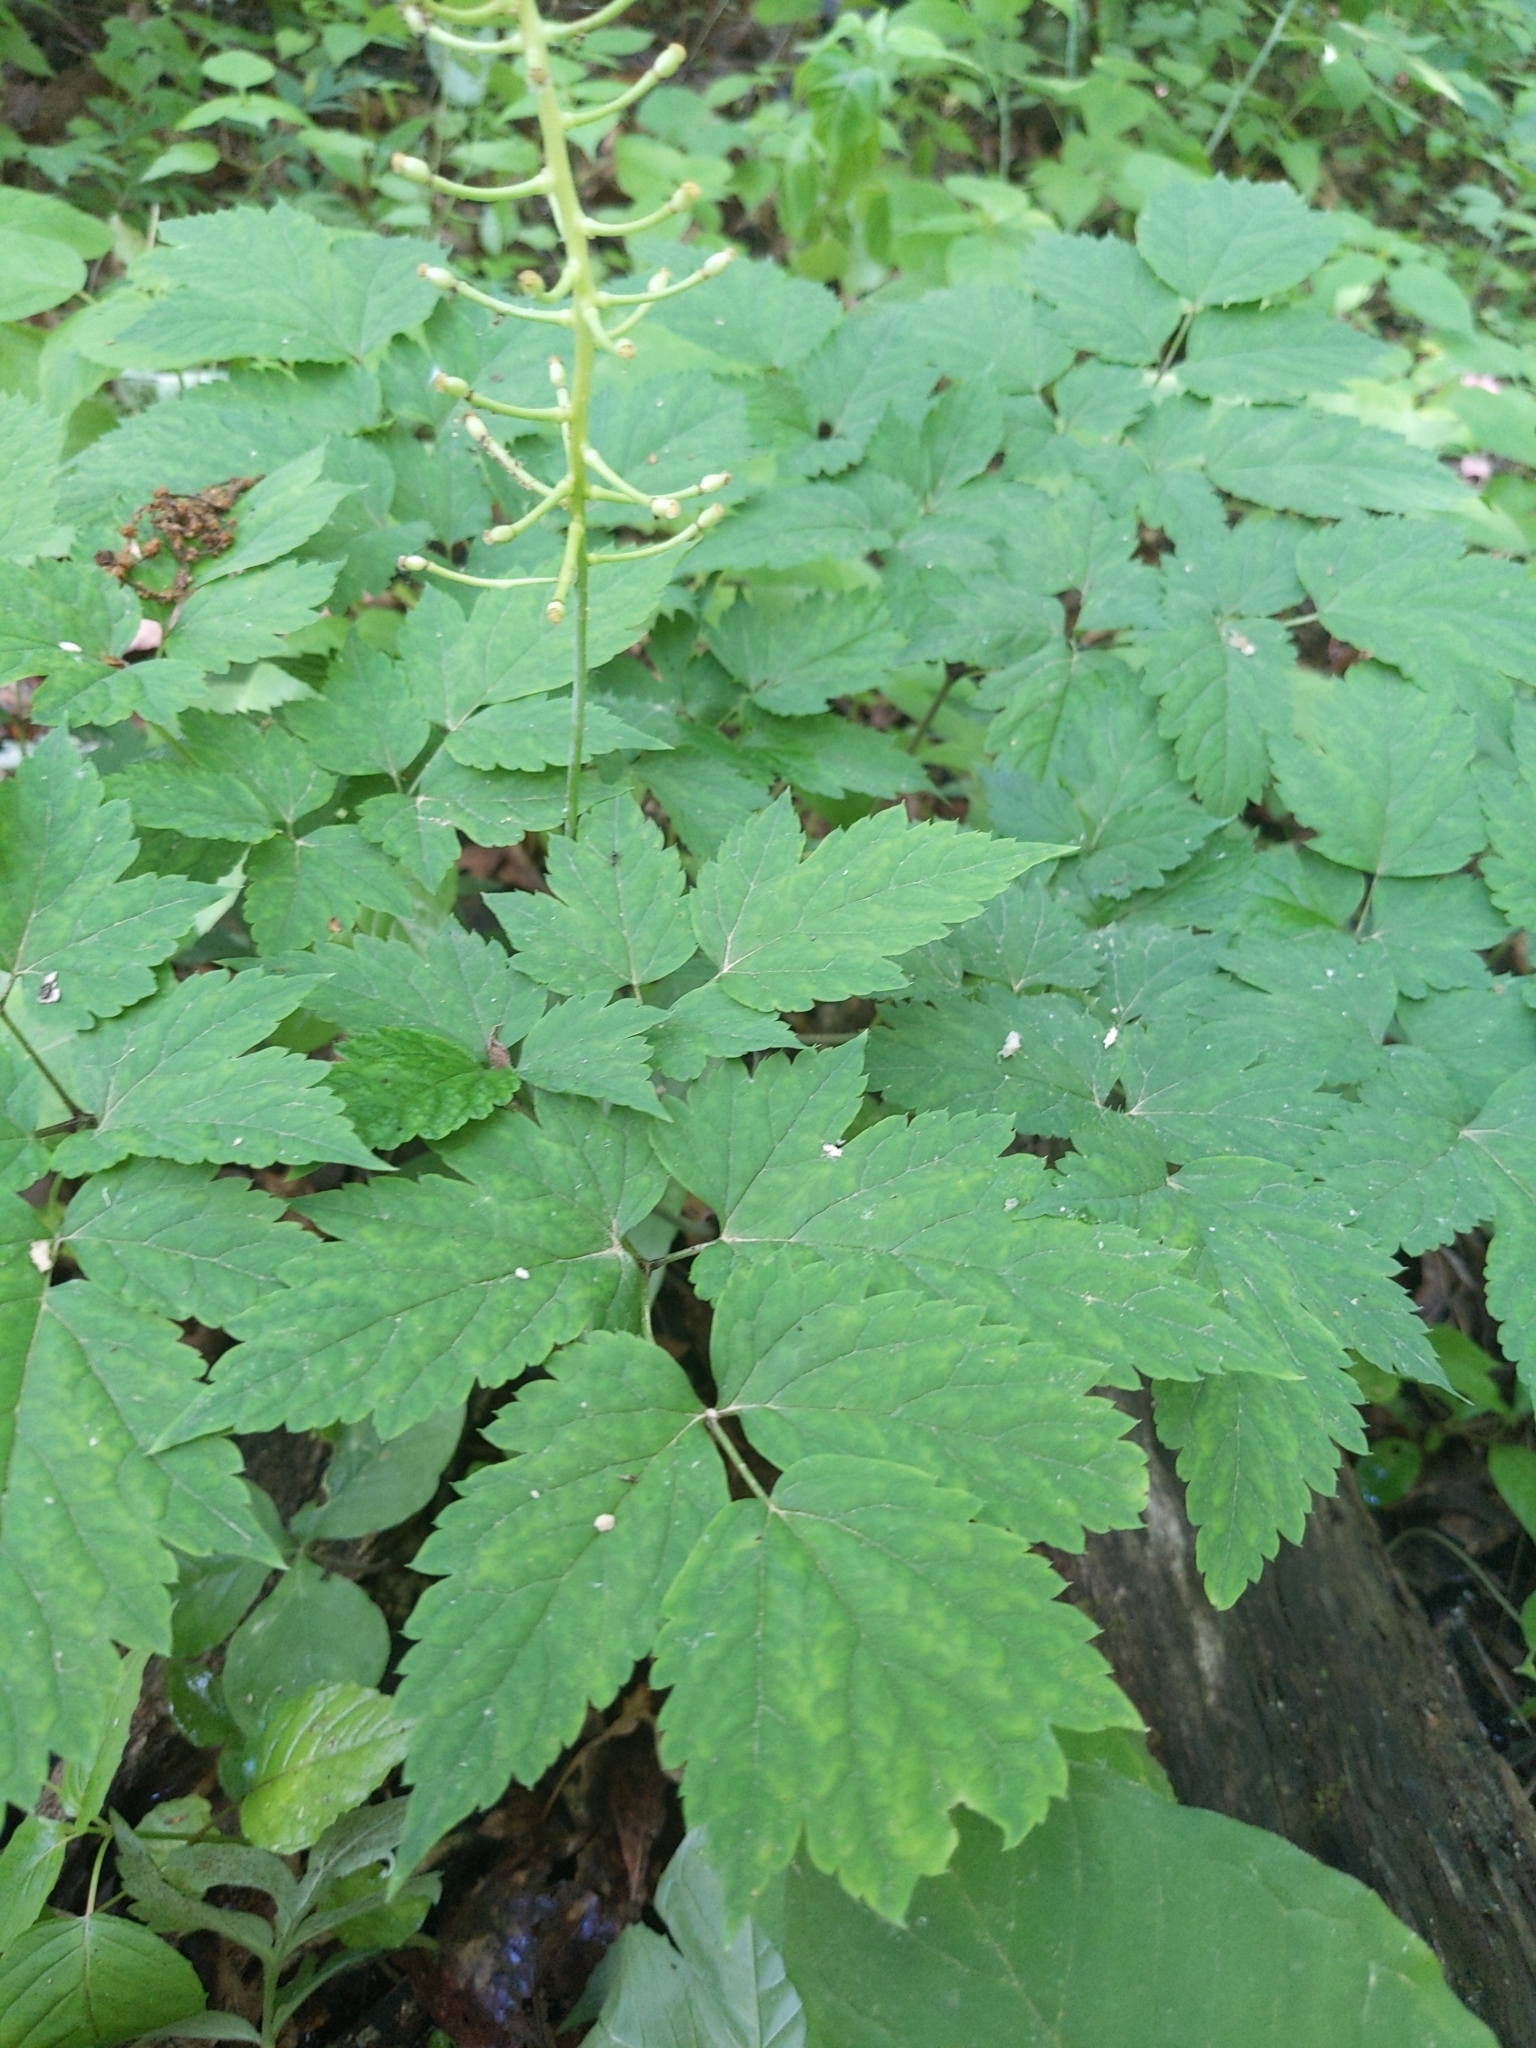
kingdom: Plantae
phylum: Tracheophyta
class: Magnoliopsida
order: Ranunculales
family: Ranunculaceae
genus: Actaea
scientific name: Actaea pachypoda
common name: Doll's-eyes
